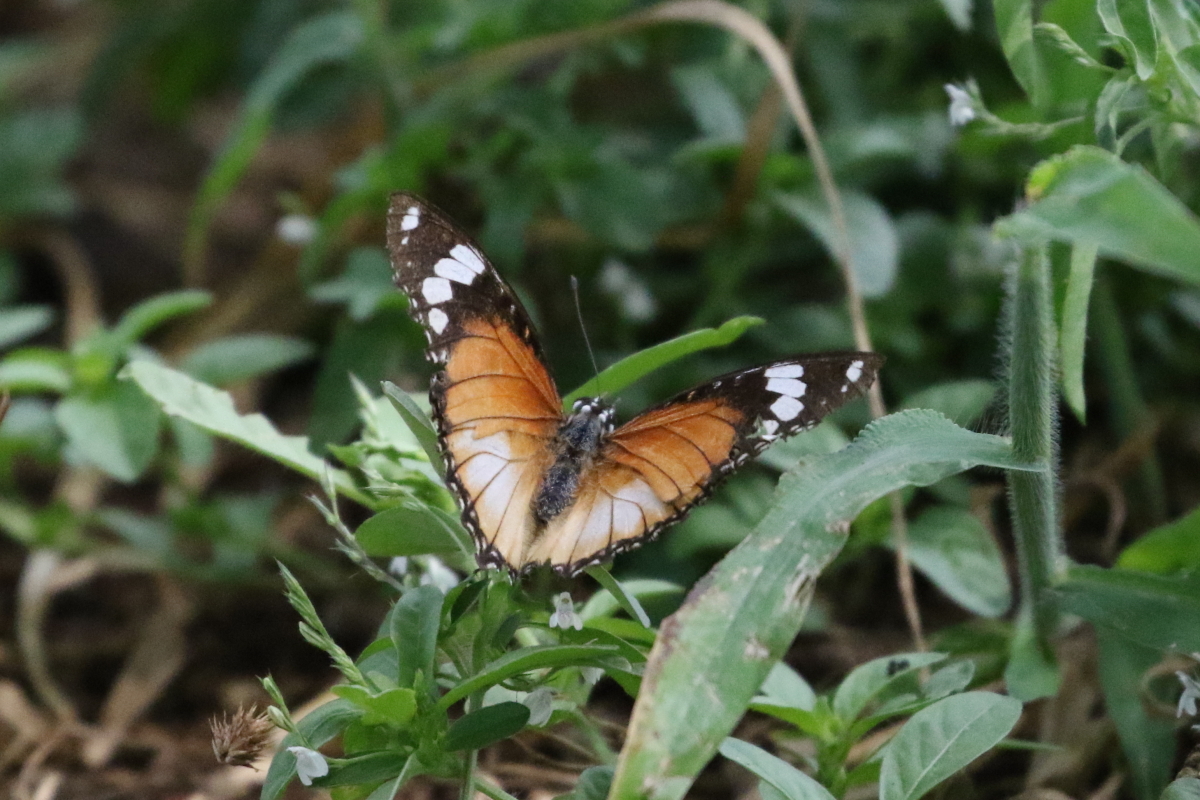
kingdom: Animalia
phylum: Arthropoda
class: Insecta
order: Lepidoptera
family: Nymphalidae
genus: Hypolimnas
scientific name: Hypolimnas misippus
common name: False plain tiger
